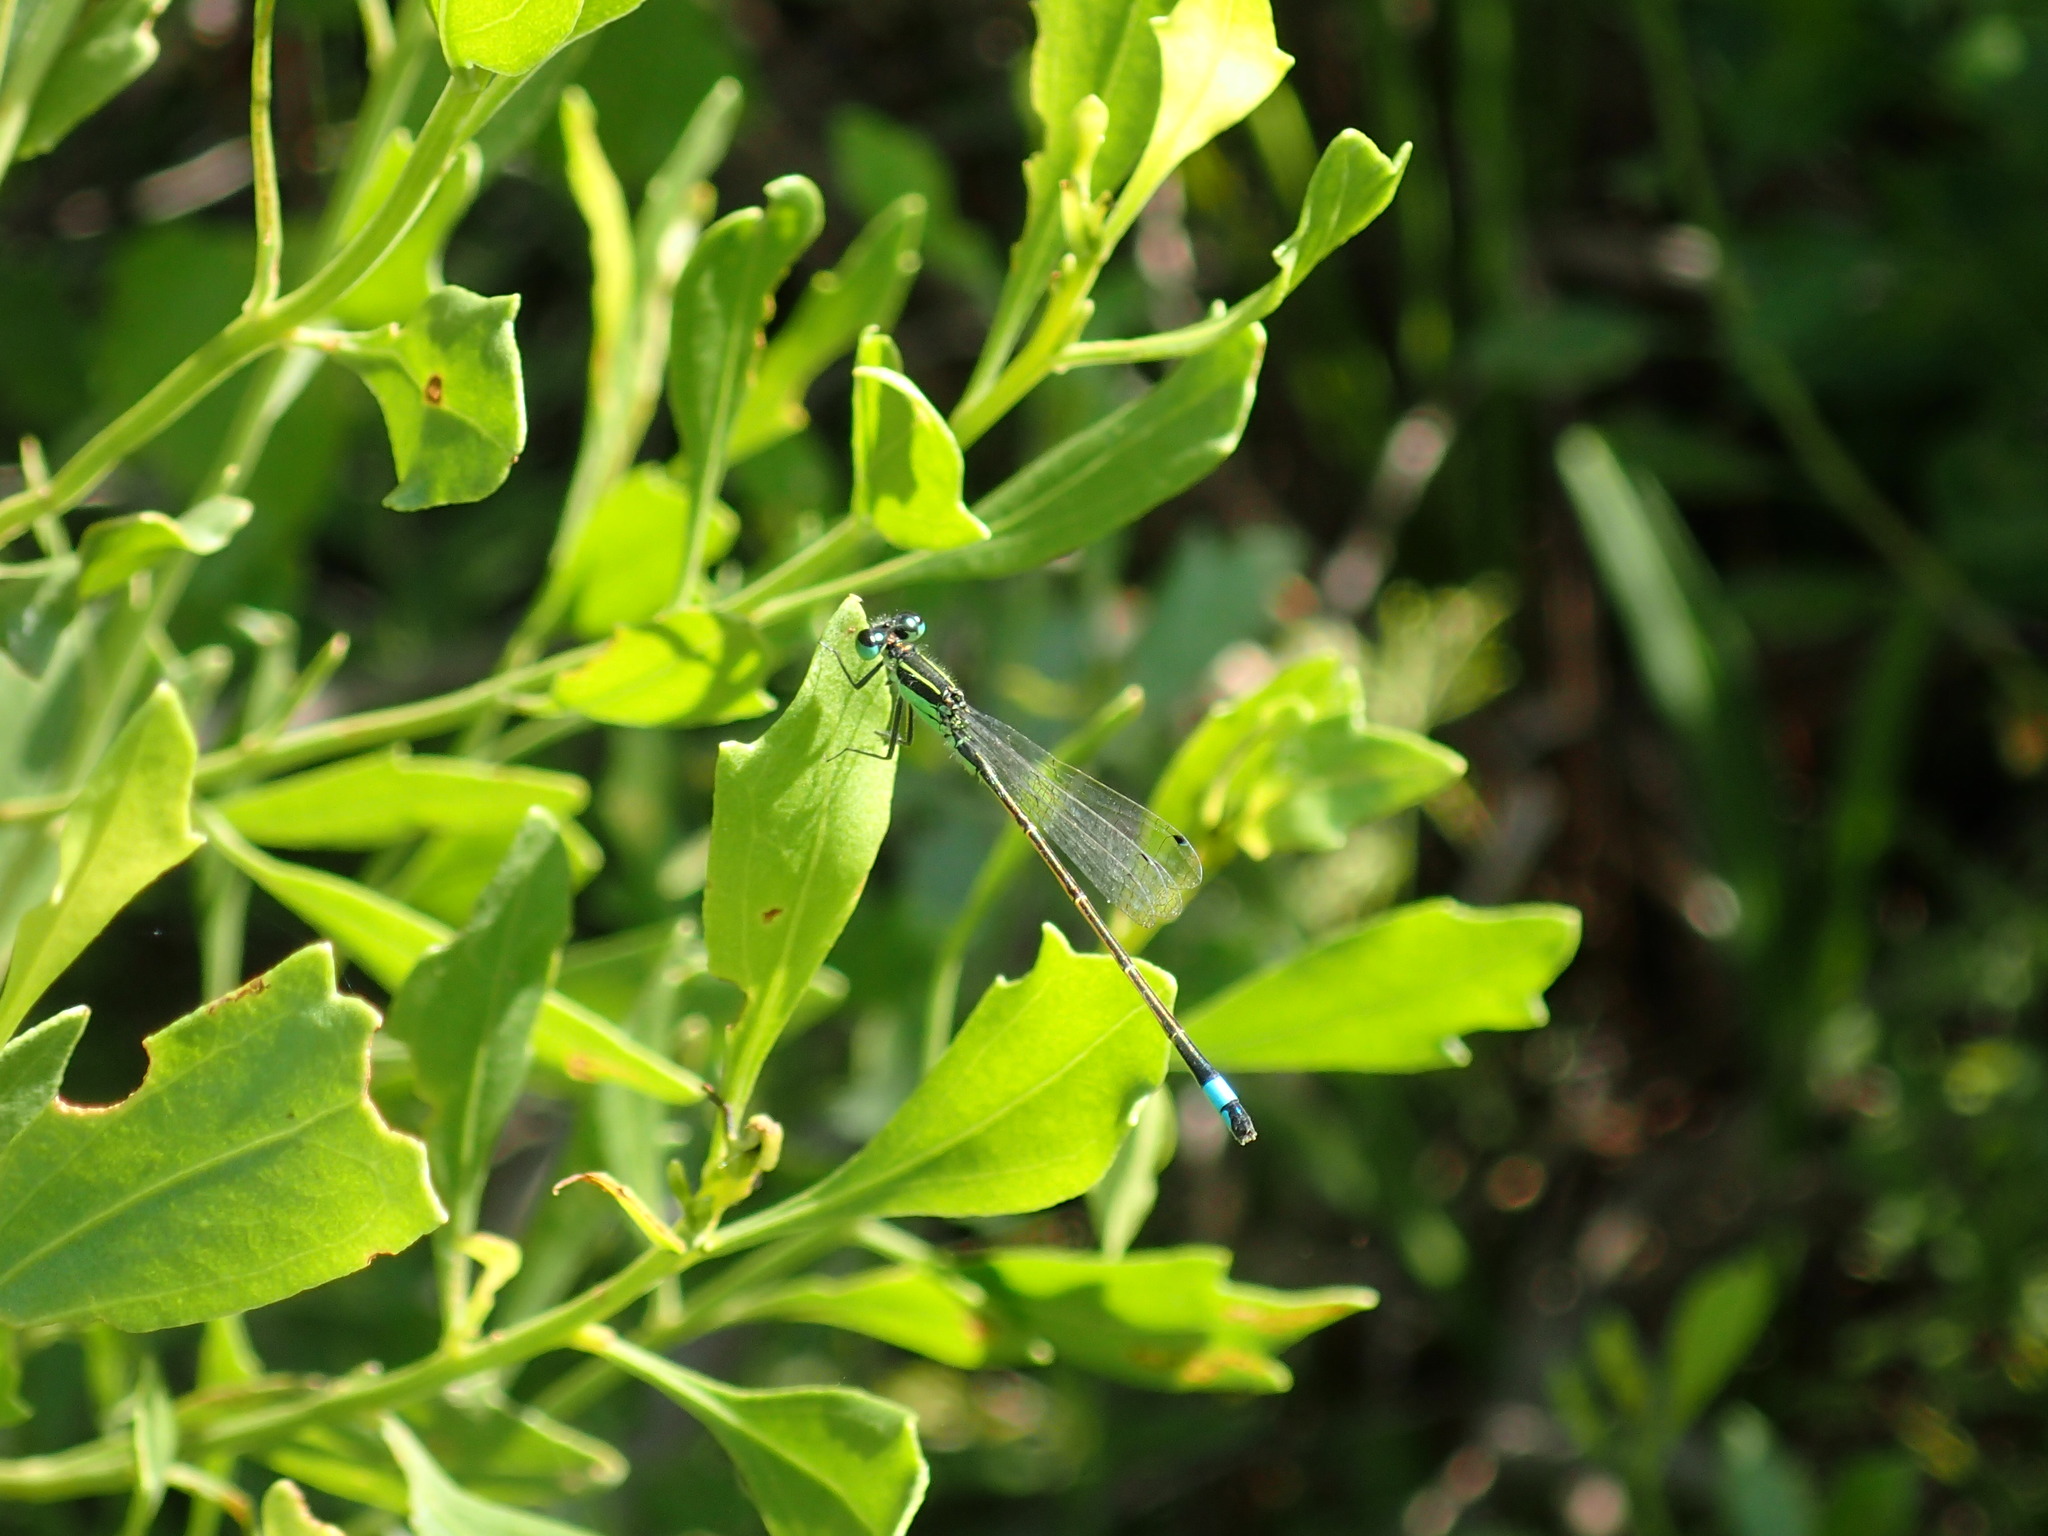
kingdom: Animalia
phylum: Arthropoda
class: Insecta
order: Odonata
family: Coenagrionidae
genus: Ischnura
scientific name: Ischnura ramburii
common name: Rambur's forktail
